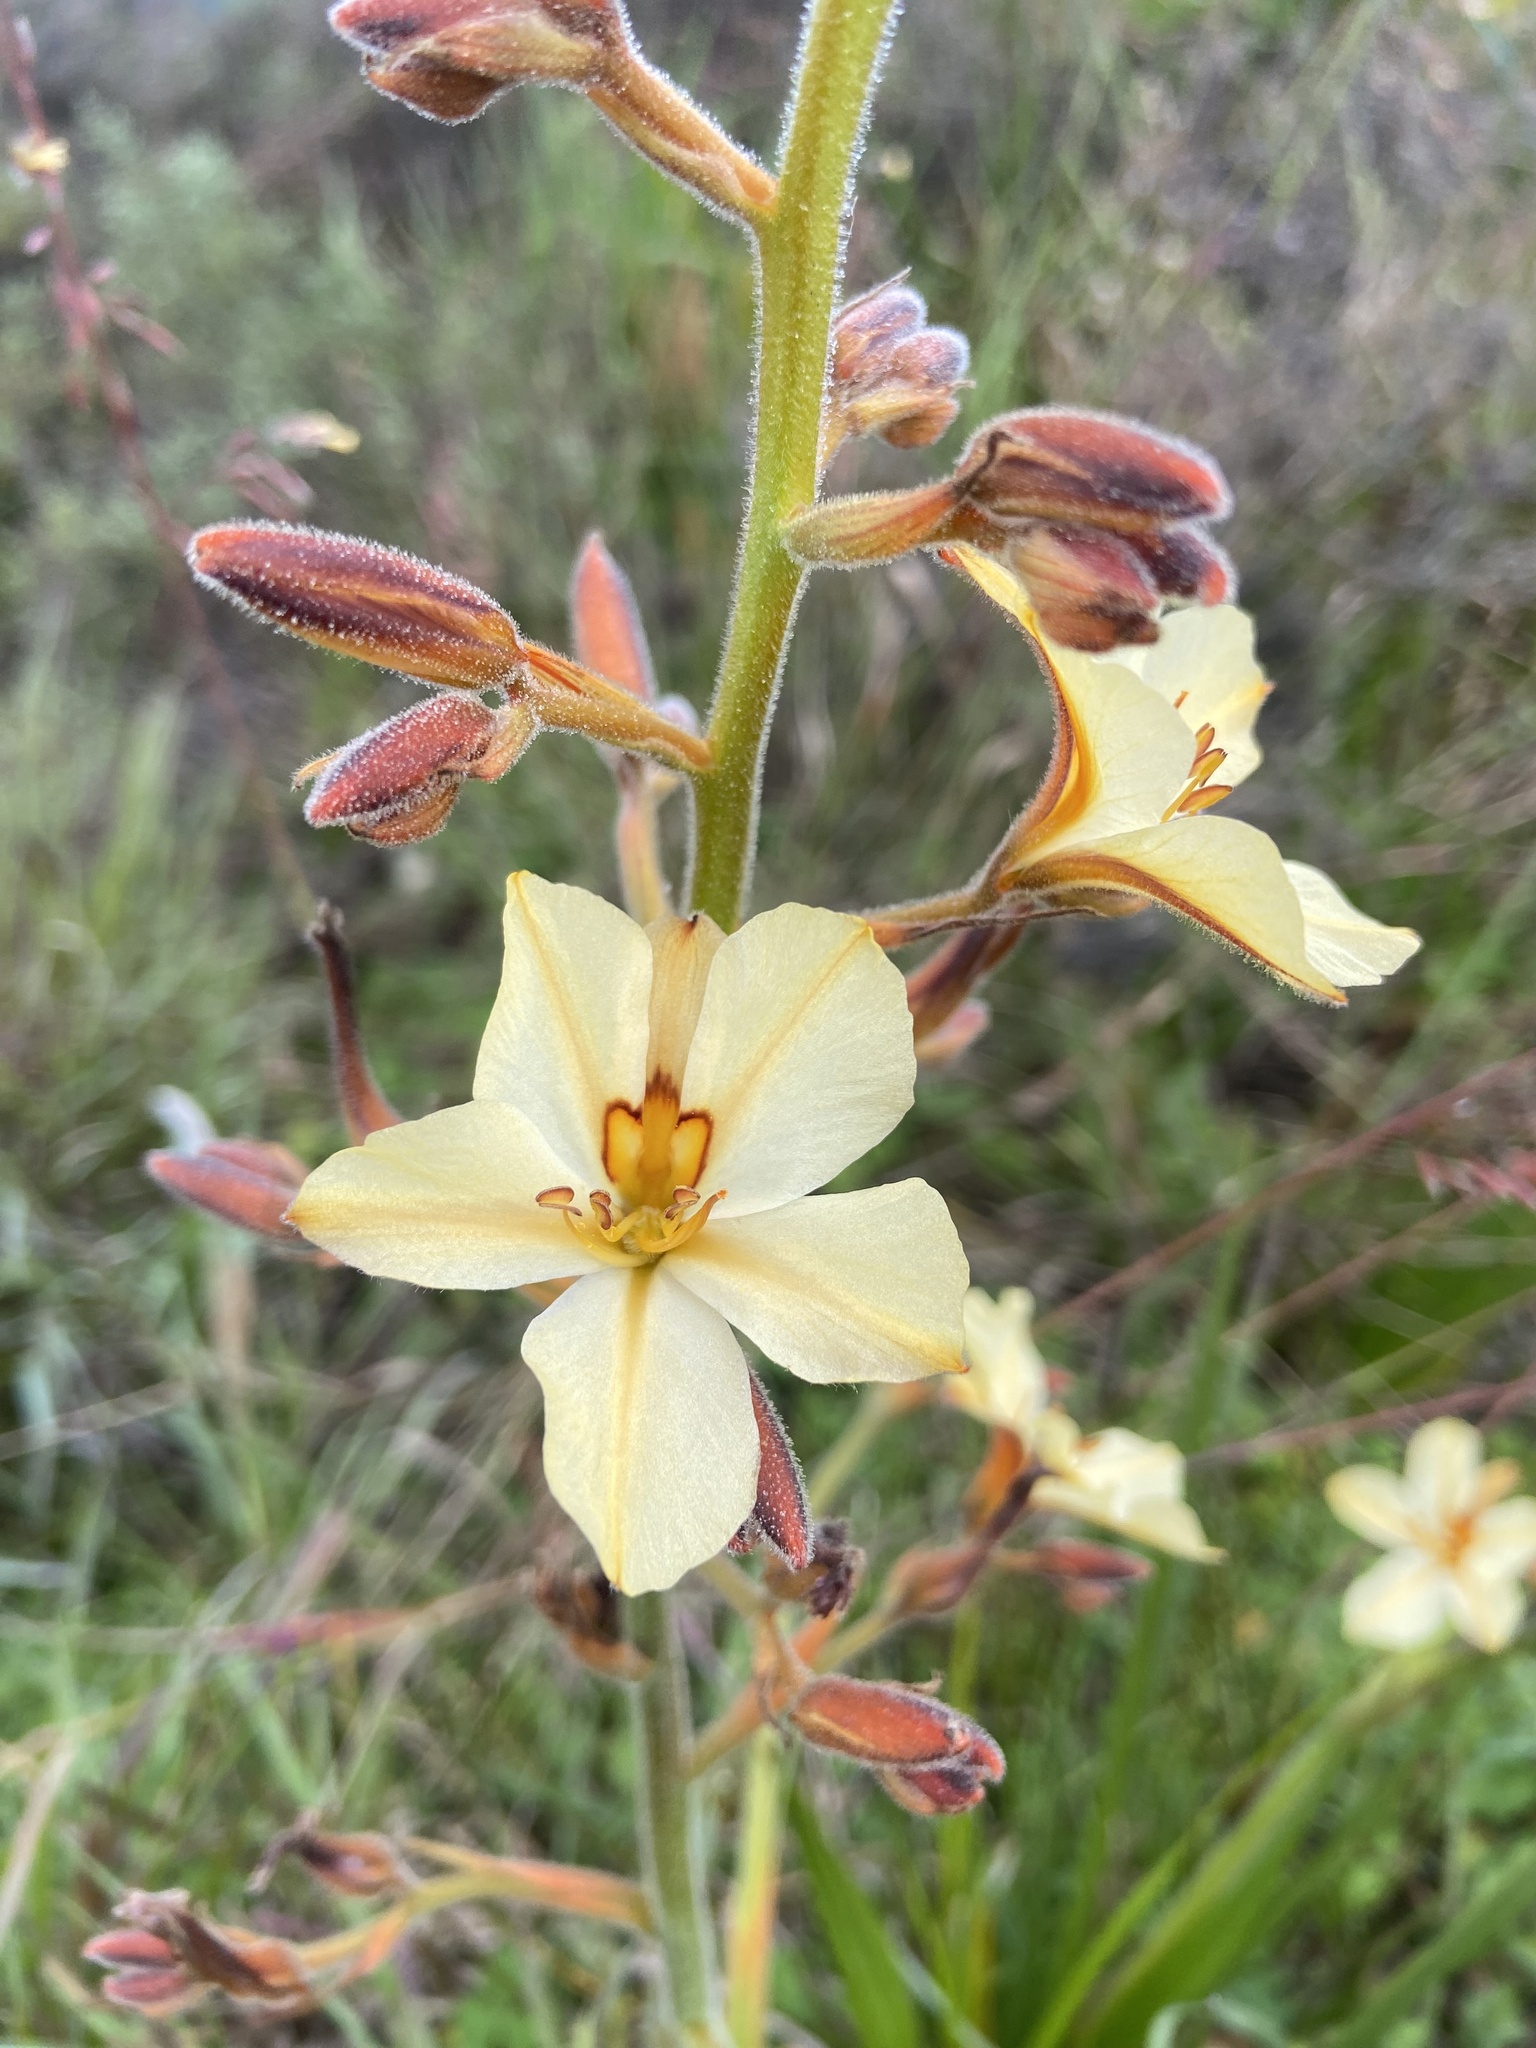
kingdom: Plantae
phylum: Tracheophyta
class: Liliopsida
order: Commelinales
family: Haemodoraceae
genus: Wachendorfia
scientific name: Wachendorfia brachyandra
